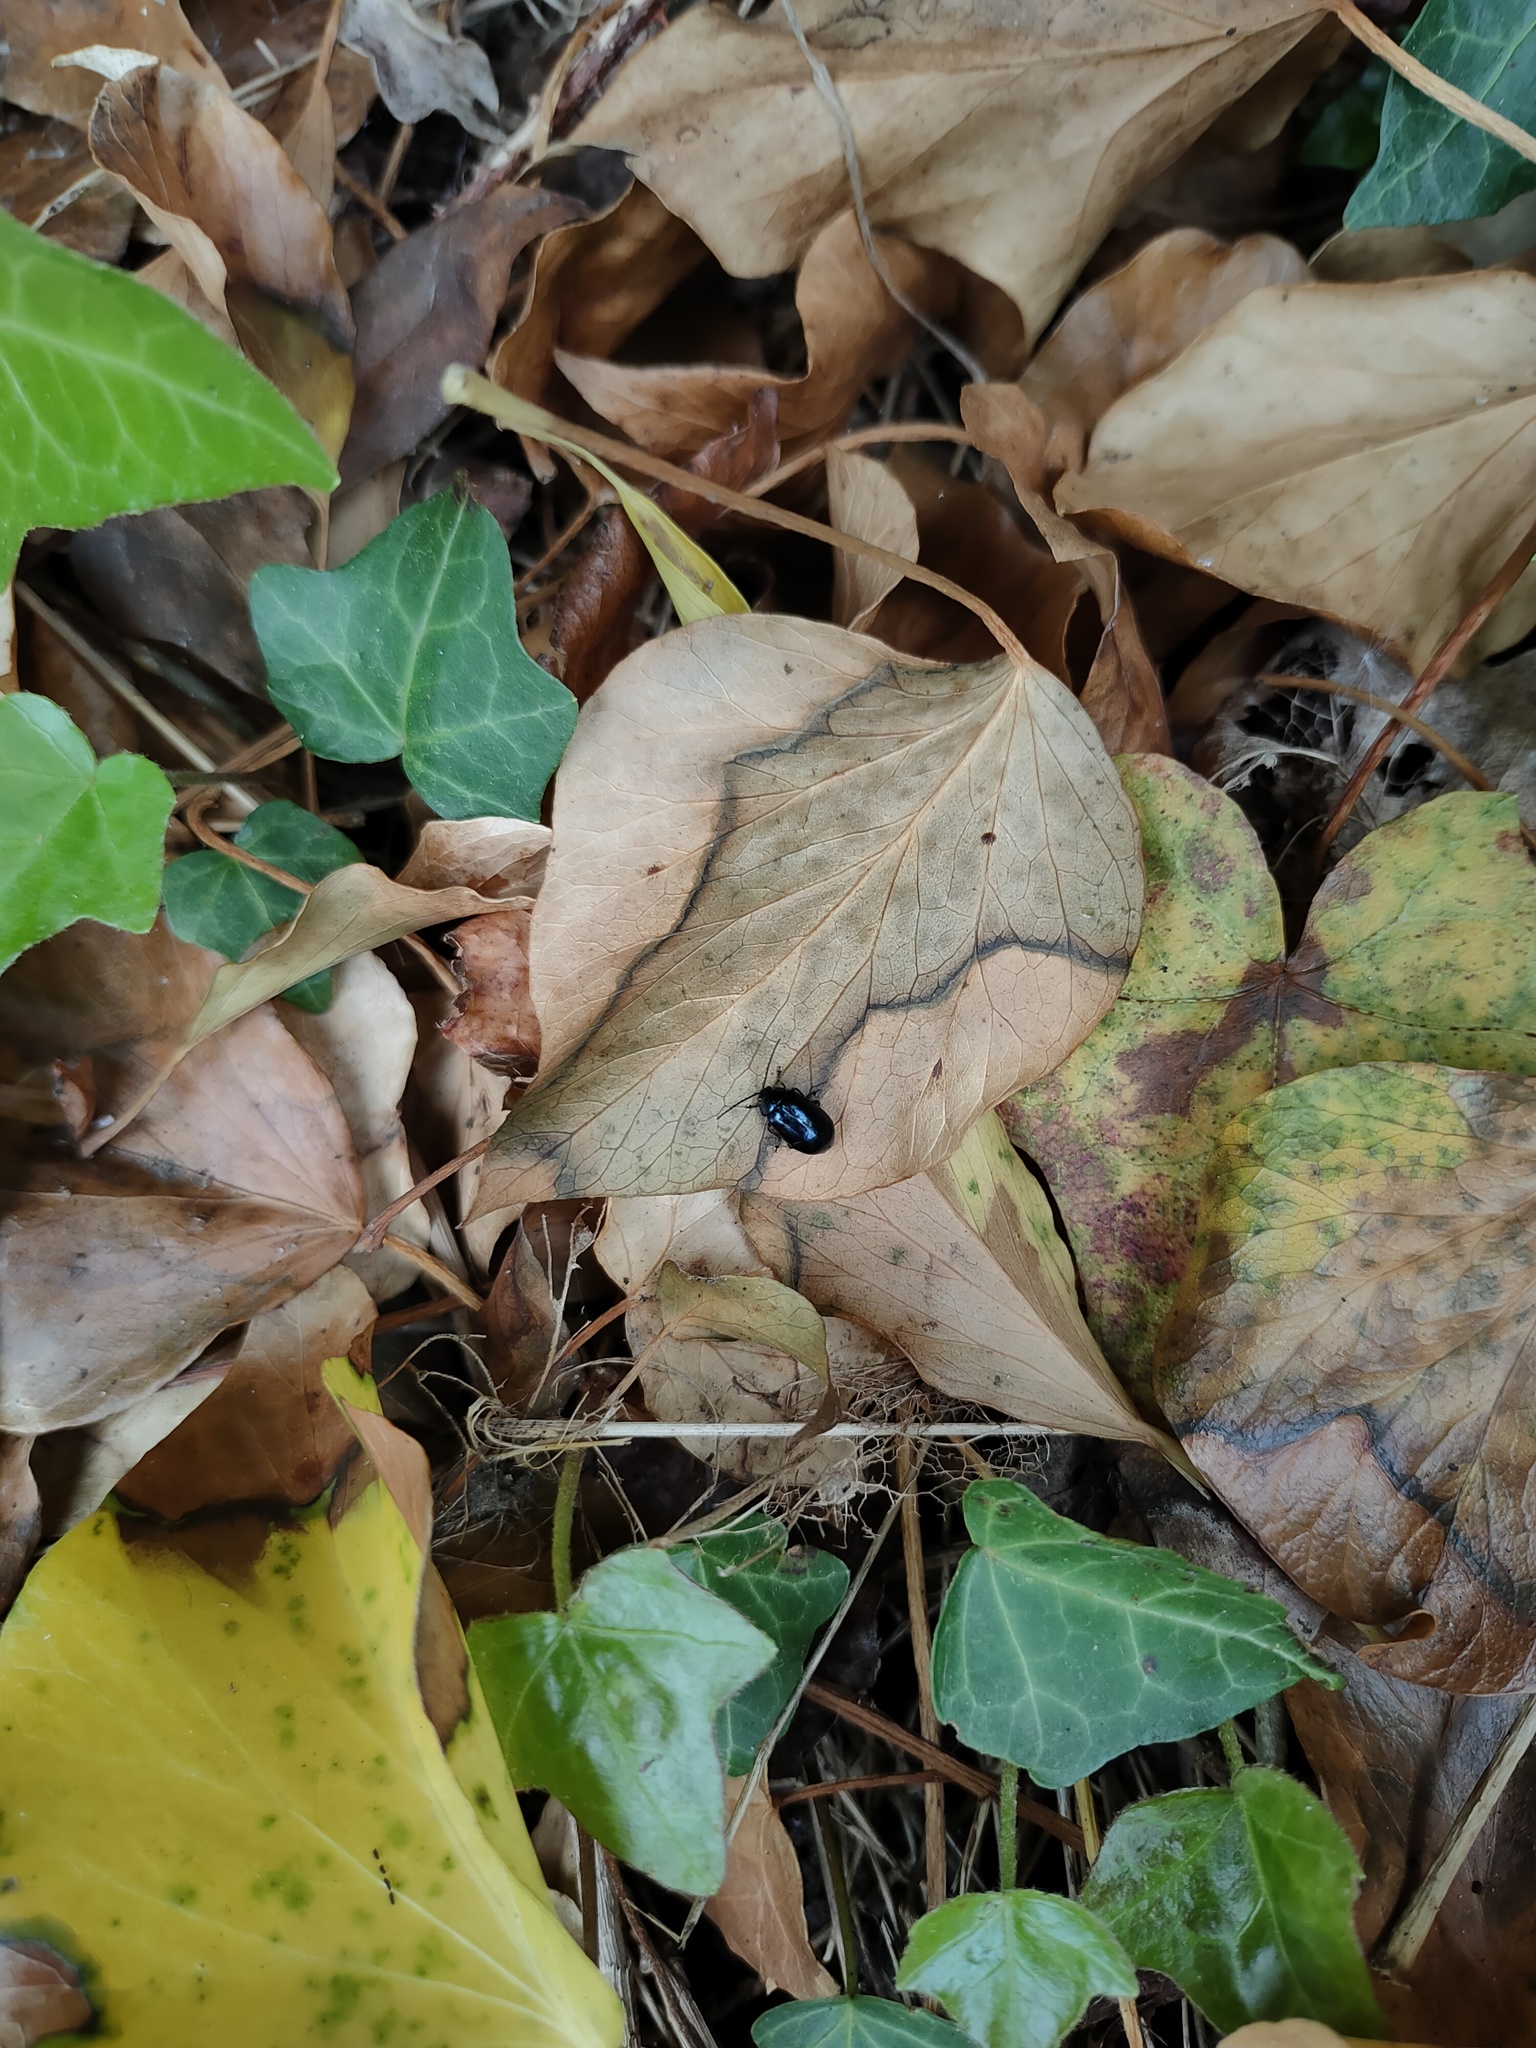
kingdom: Animalia
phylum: Arthropoda
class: Insecta
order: Coleoptera
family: Chrysomelidae
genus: Agelastica
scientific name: Agelastica alni
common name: Alder leaf beetle
